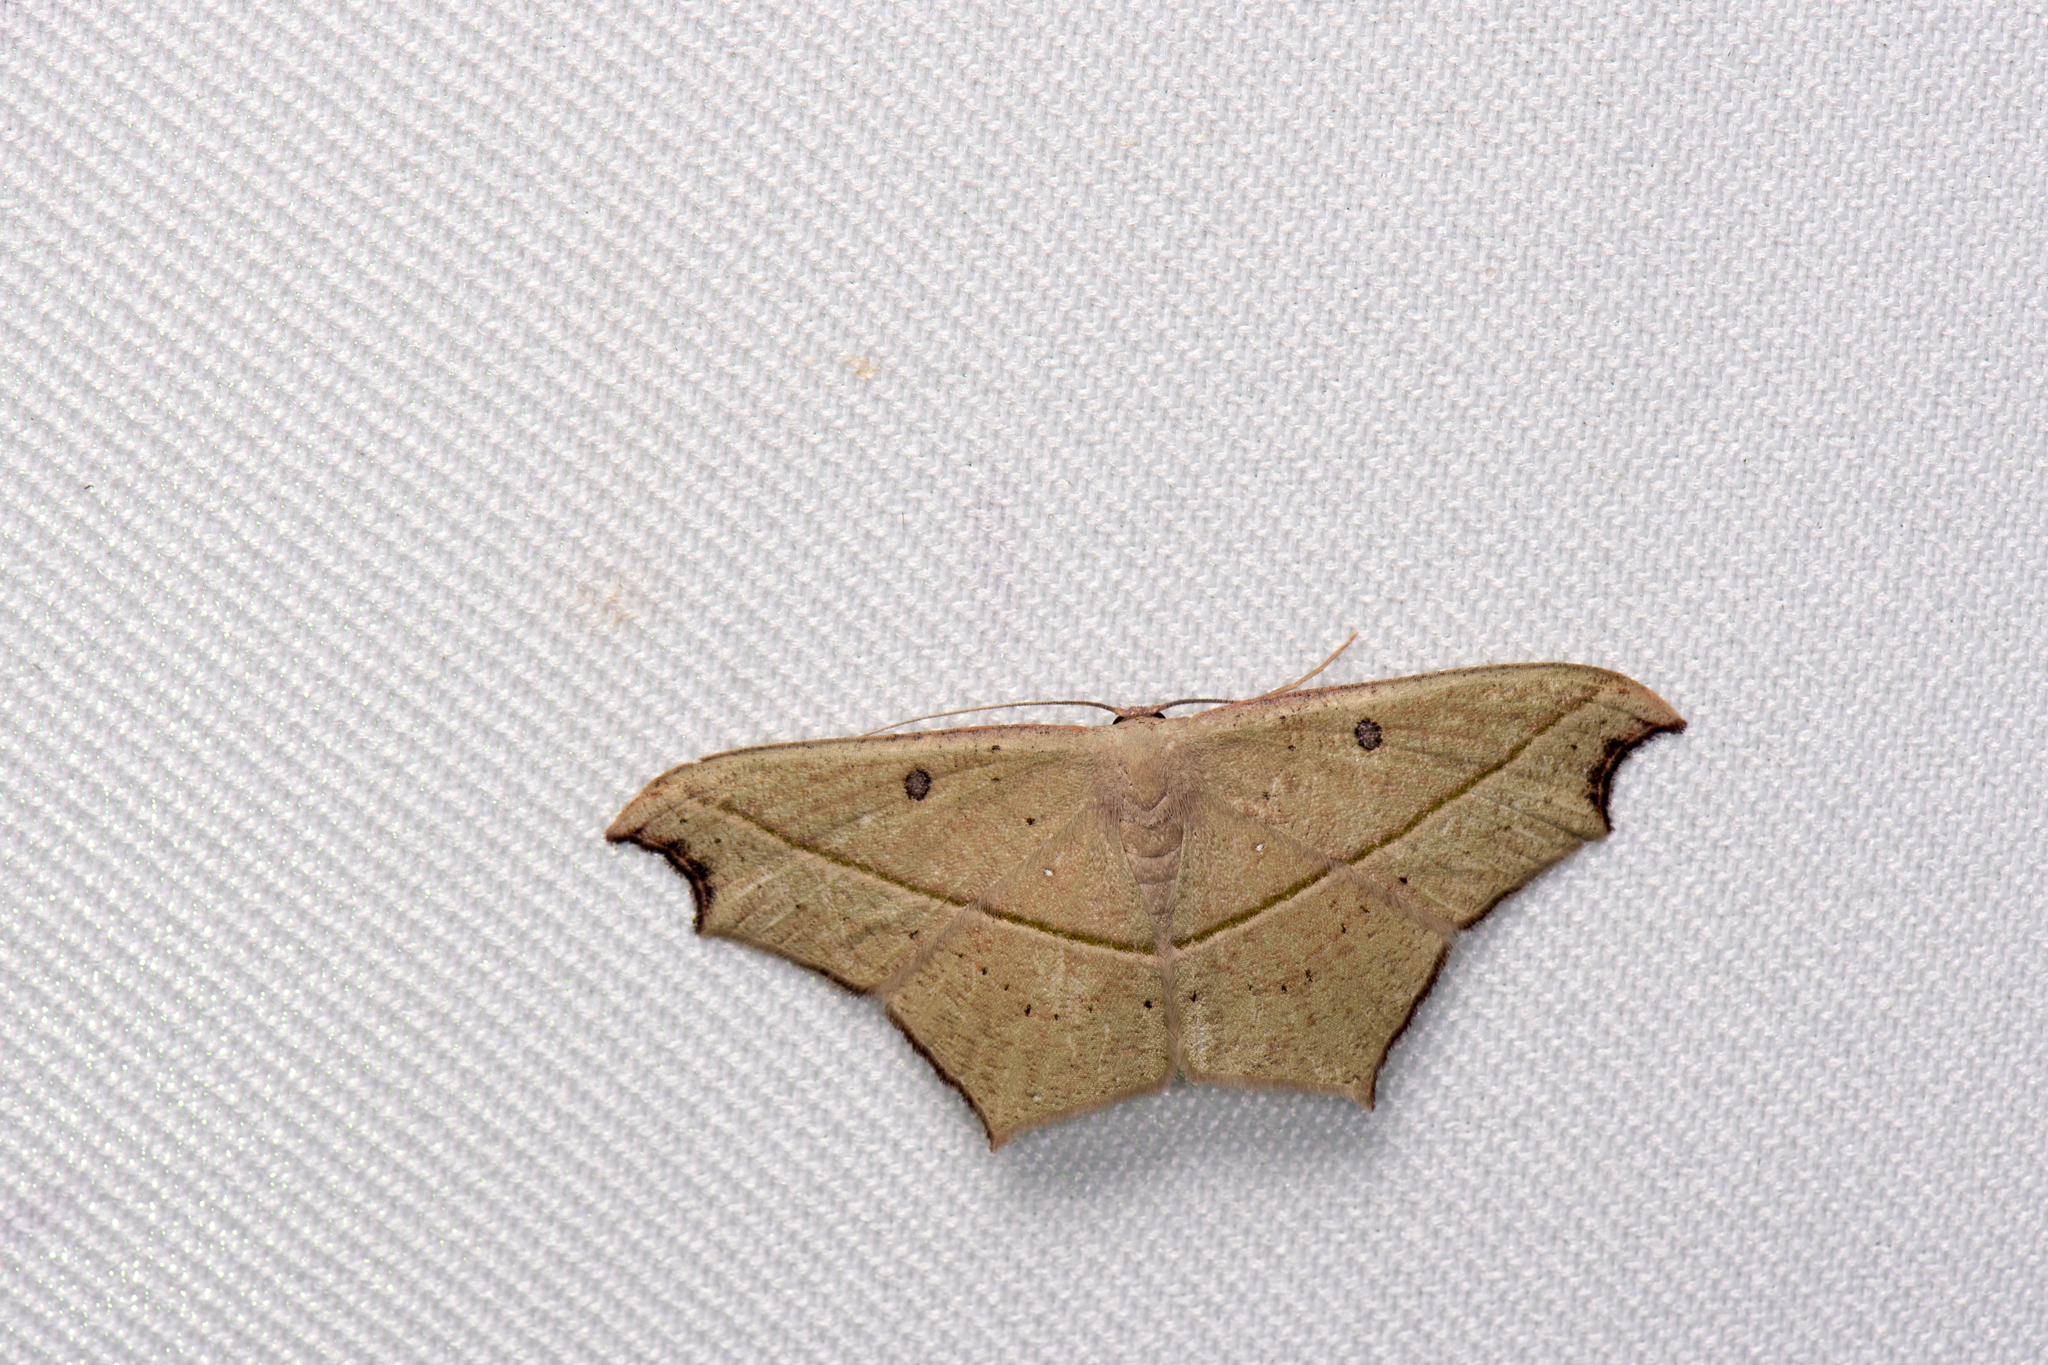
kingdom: Animalia
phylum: Arthropoda
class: Insecta
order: Lepidoptera
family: Geometridae
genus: Traminda
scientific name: Traminda aventiaria
